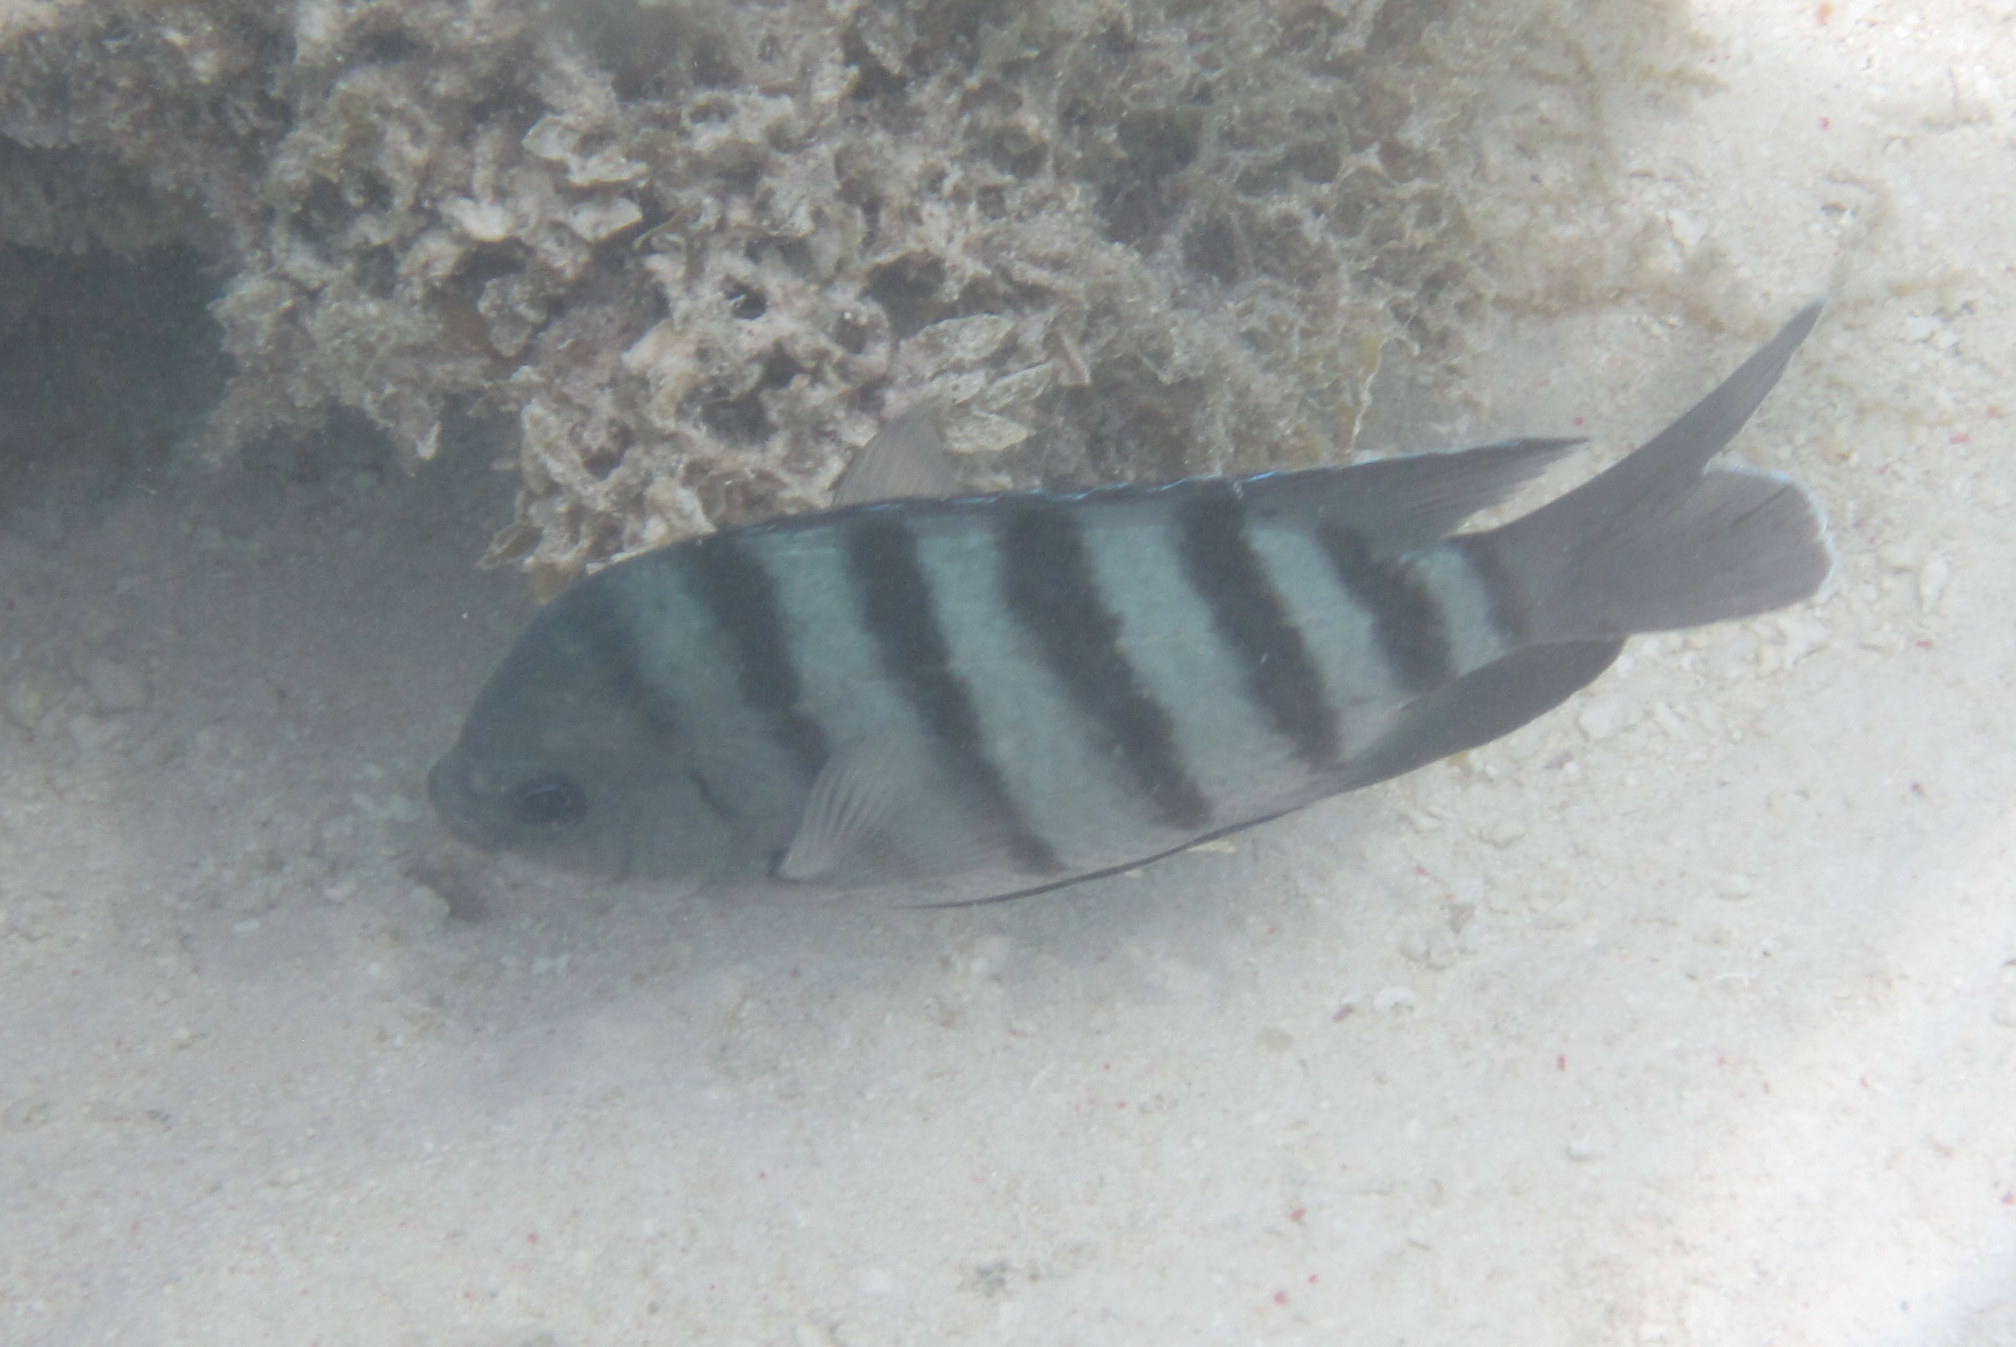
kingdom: Animalia
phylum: Chordata
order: Perciformes
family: Pomacentridae
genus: Abudefduf
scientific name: Abudefduf bengalensis
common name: Bengal sergeant
